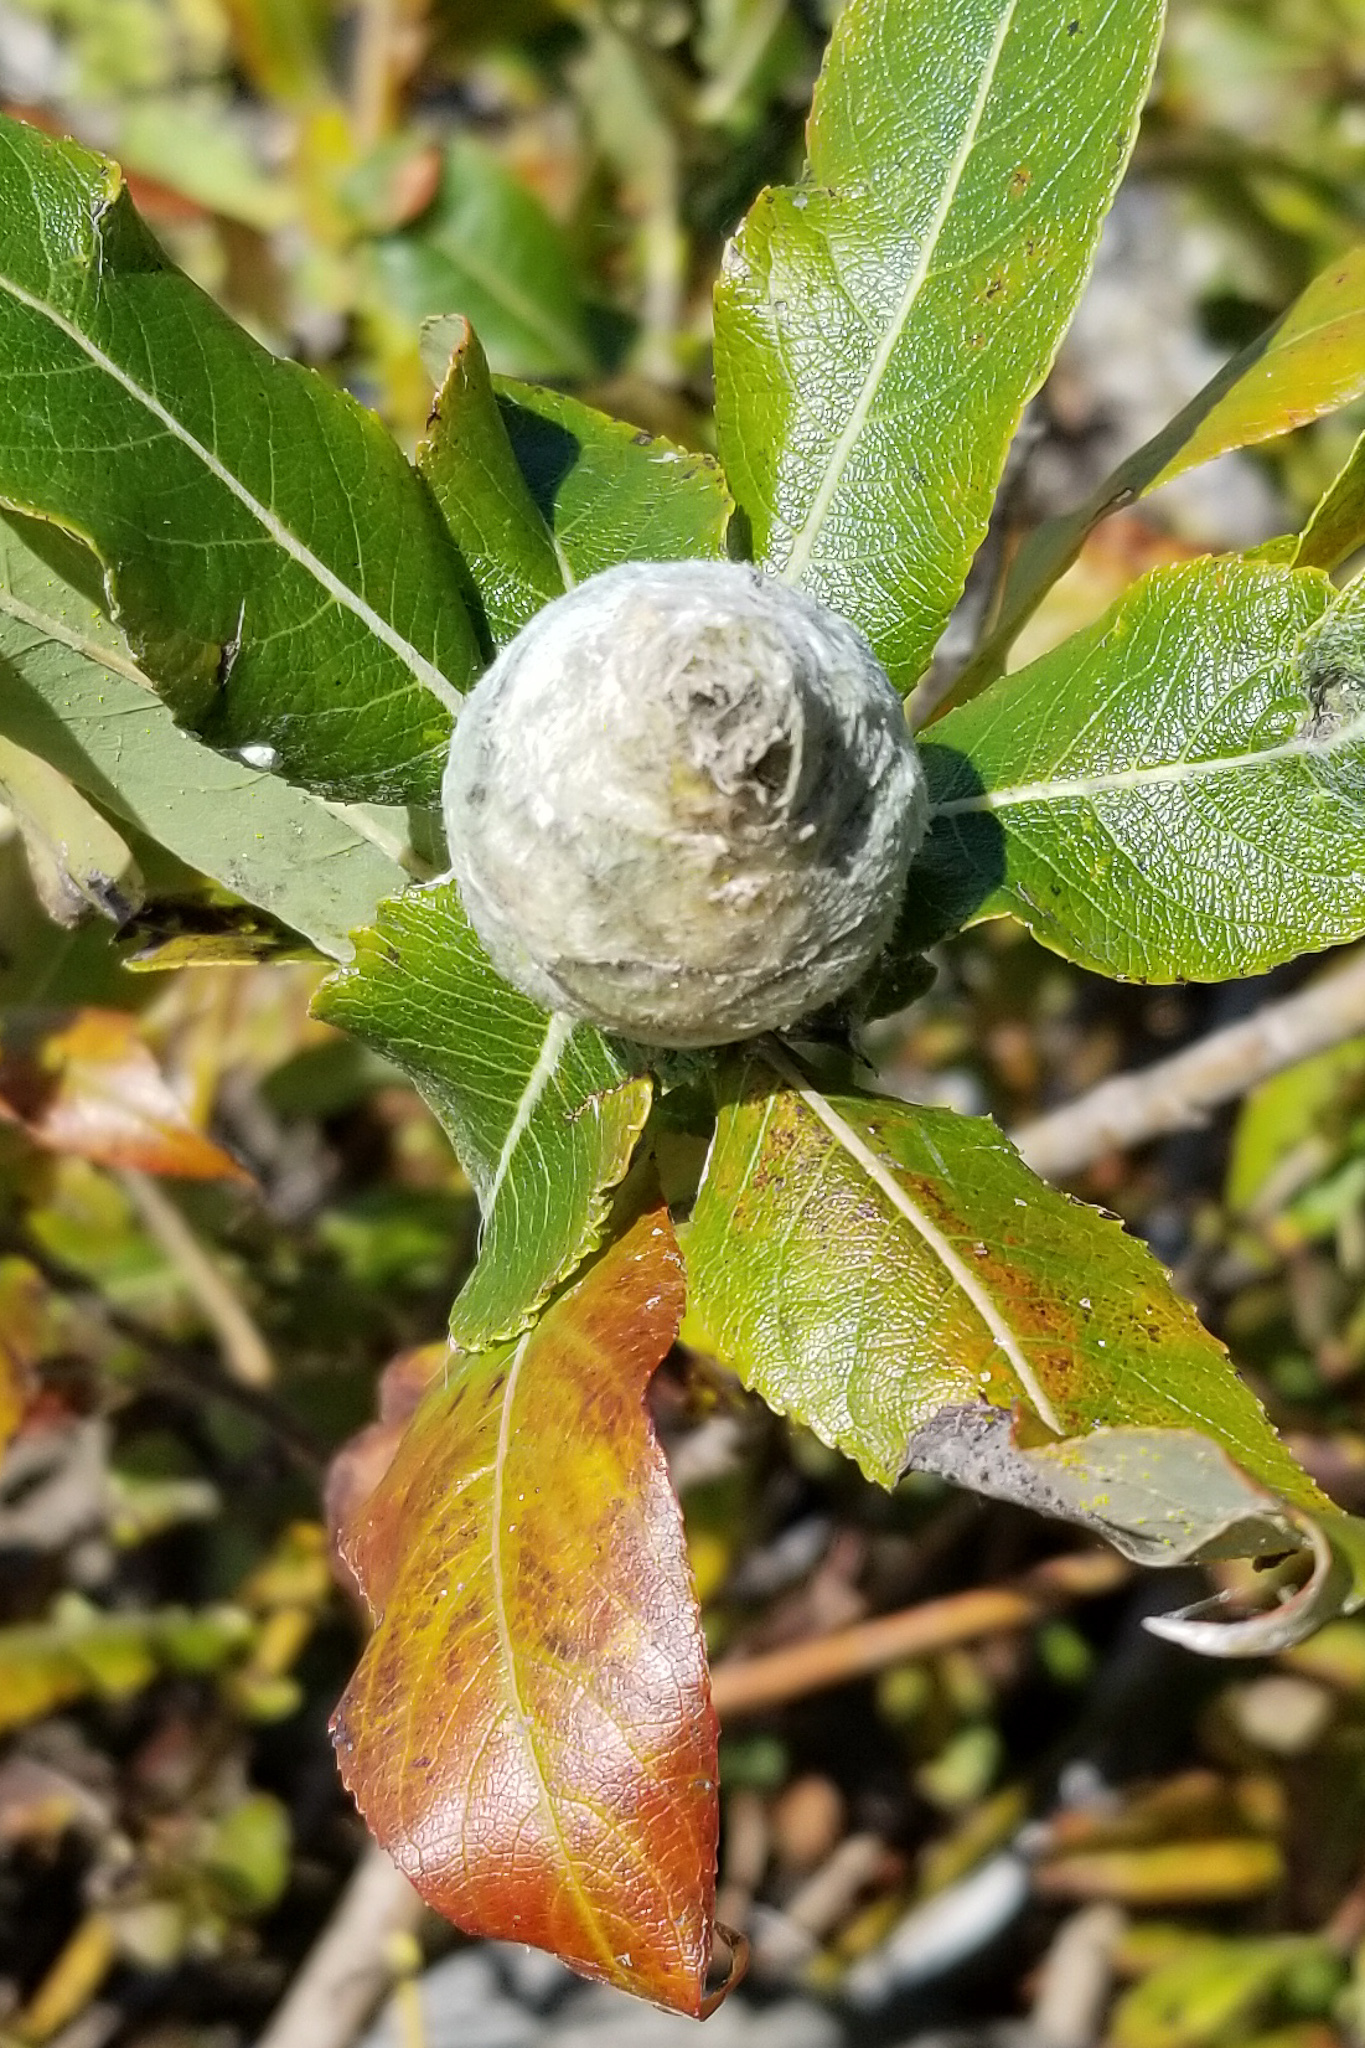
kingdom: Animalia
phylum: Arthropoda
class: Insecta
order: Diptera
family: Cecidomyiidae
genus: Rabdophaga
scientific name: Rabdophaga strobiloides
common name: Willow pinecone gall midge
